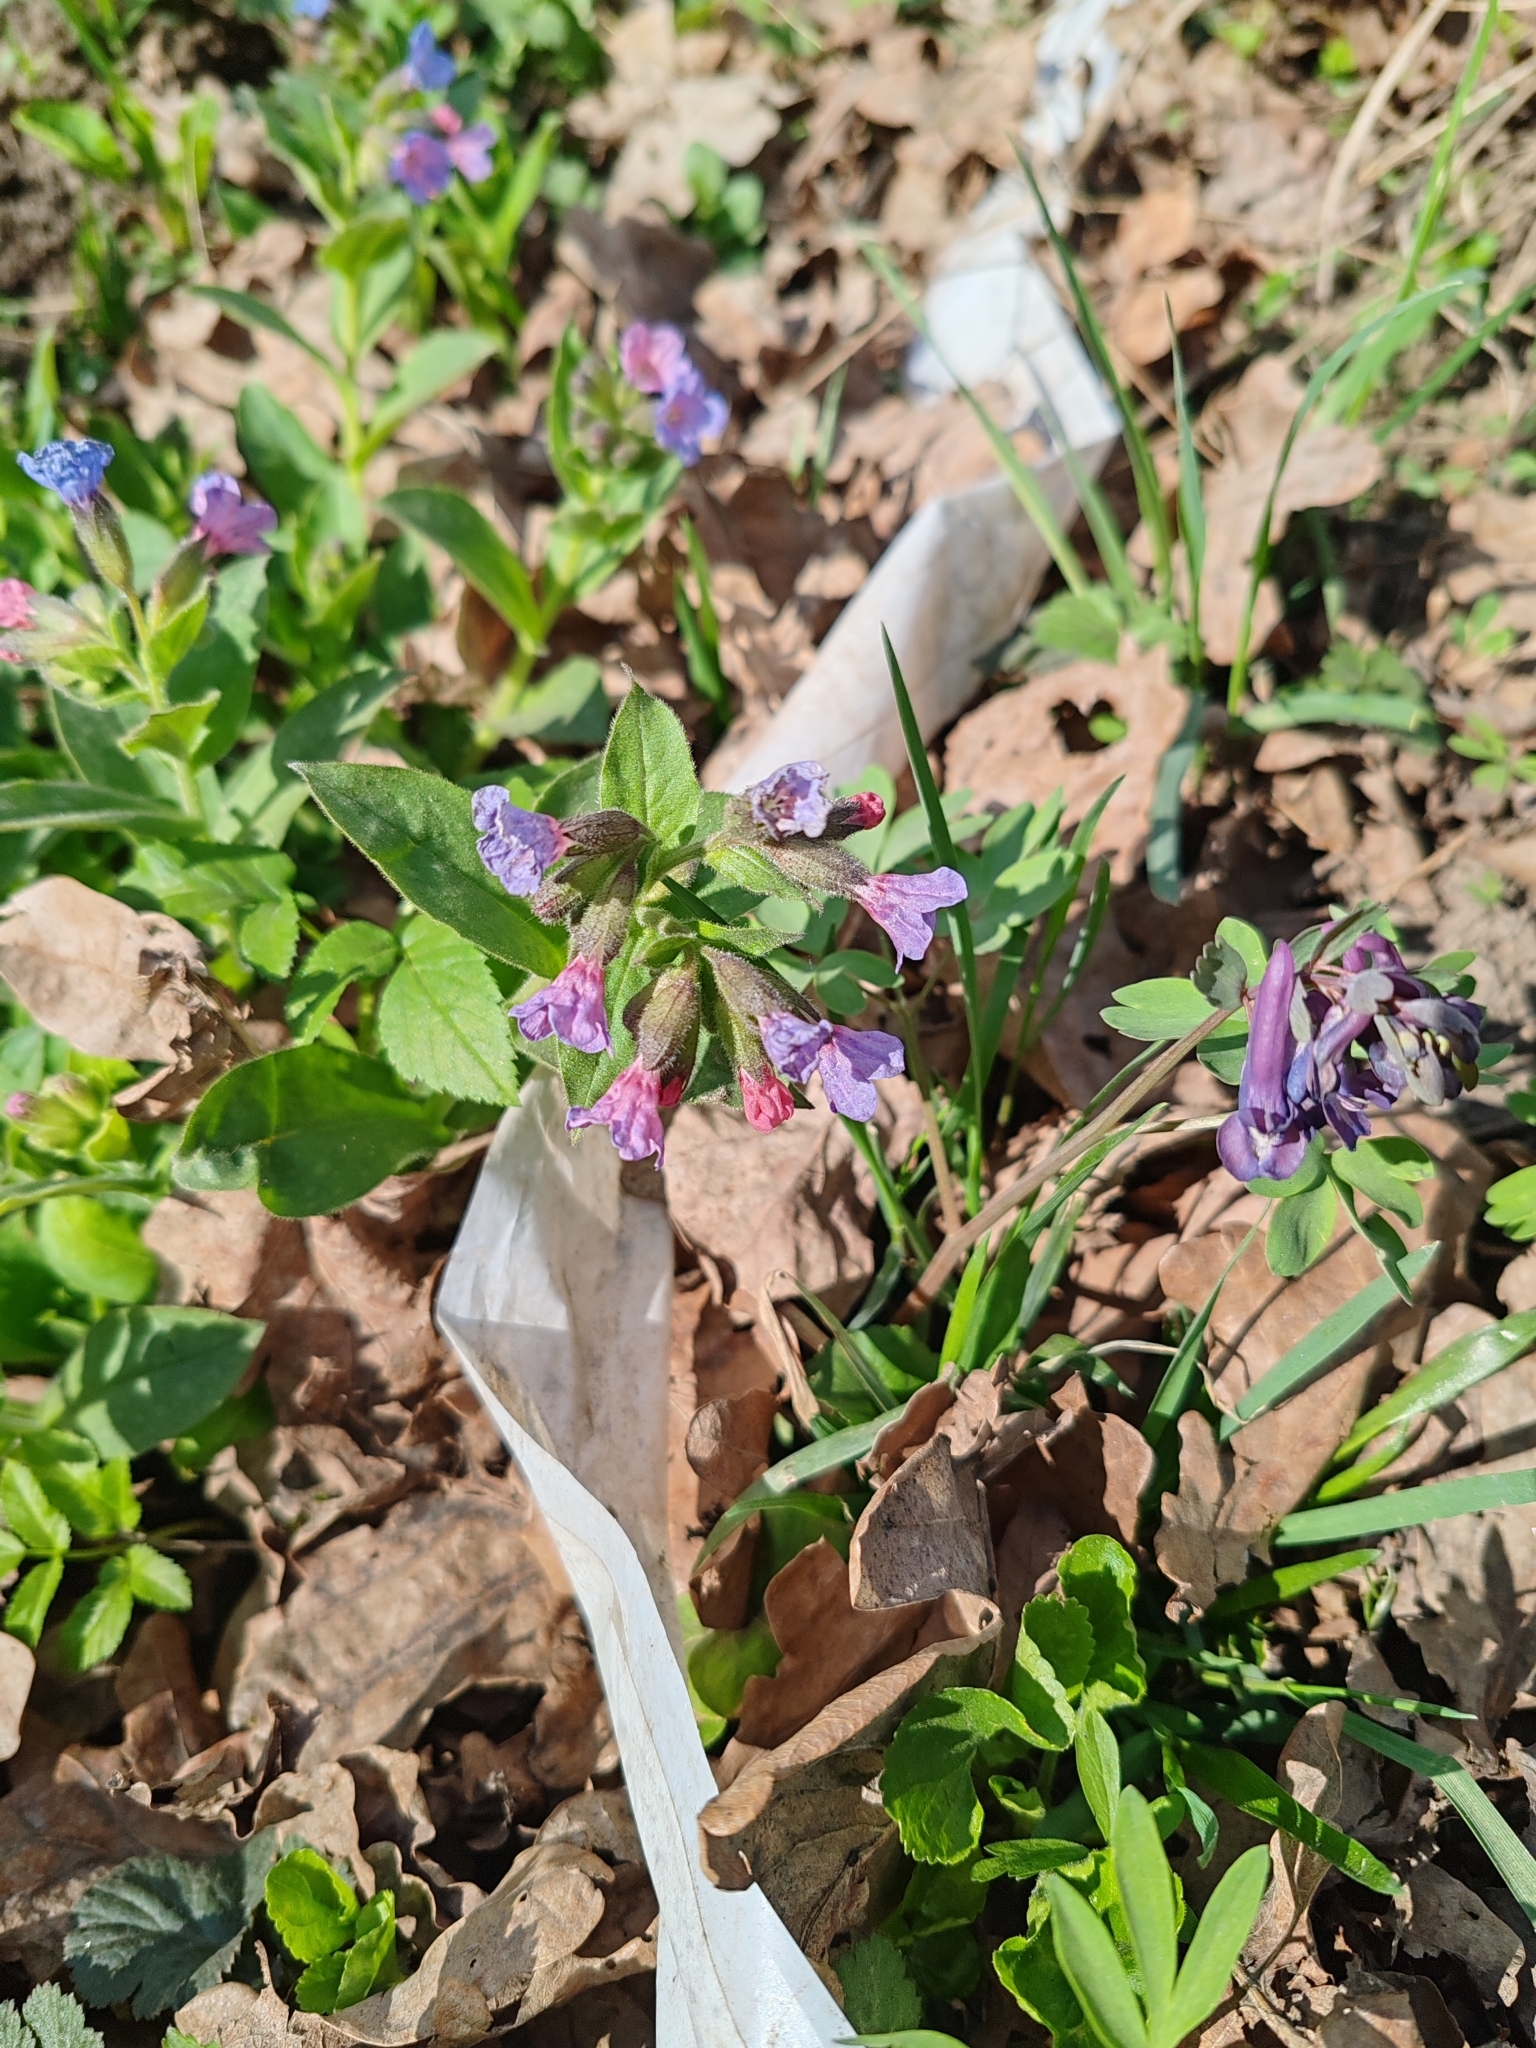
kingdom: Plantae
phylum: Tracheophyta
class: Magnoliopsida
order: Boraginales
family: Boraginaceae
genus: Pulmonaria
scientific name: Pulmonaria obscura
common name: Suffolk lungwort
